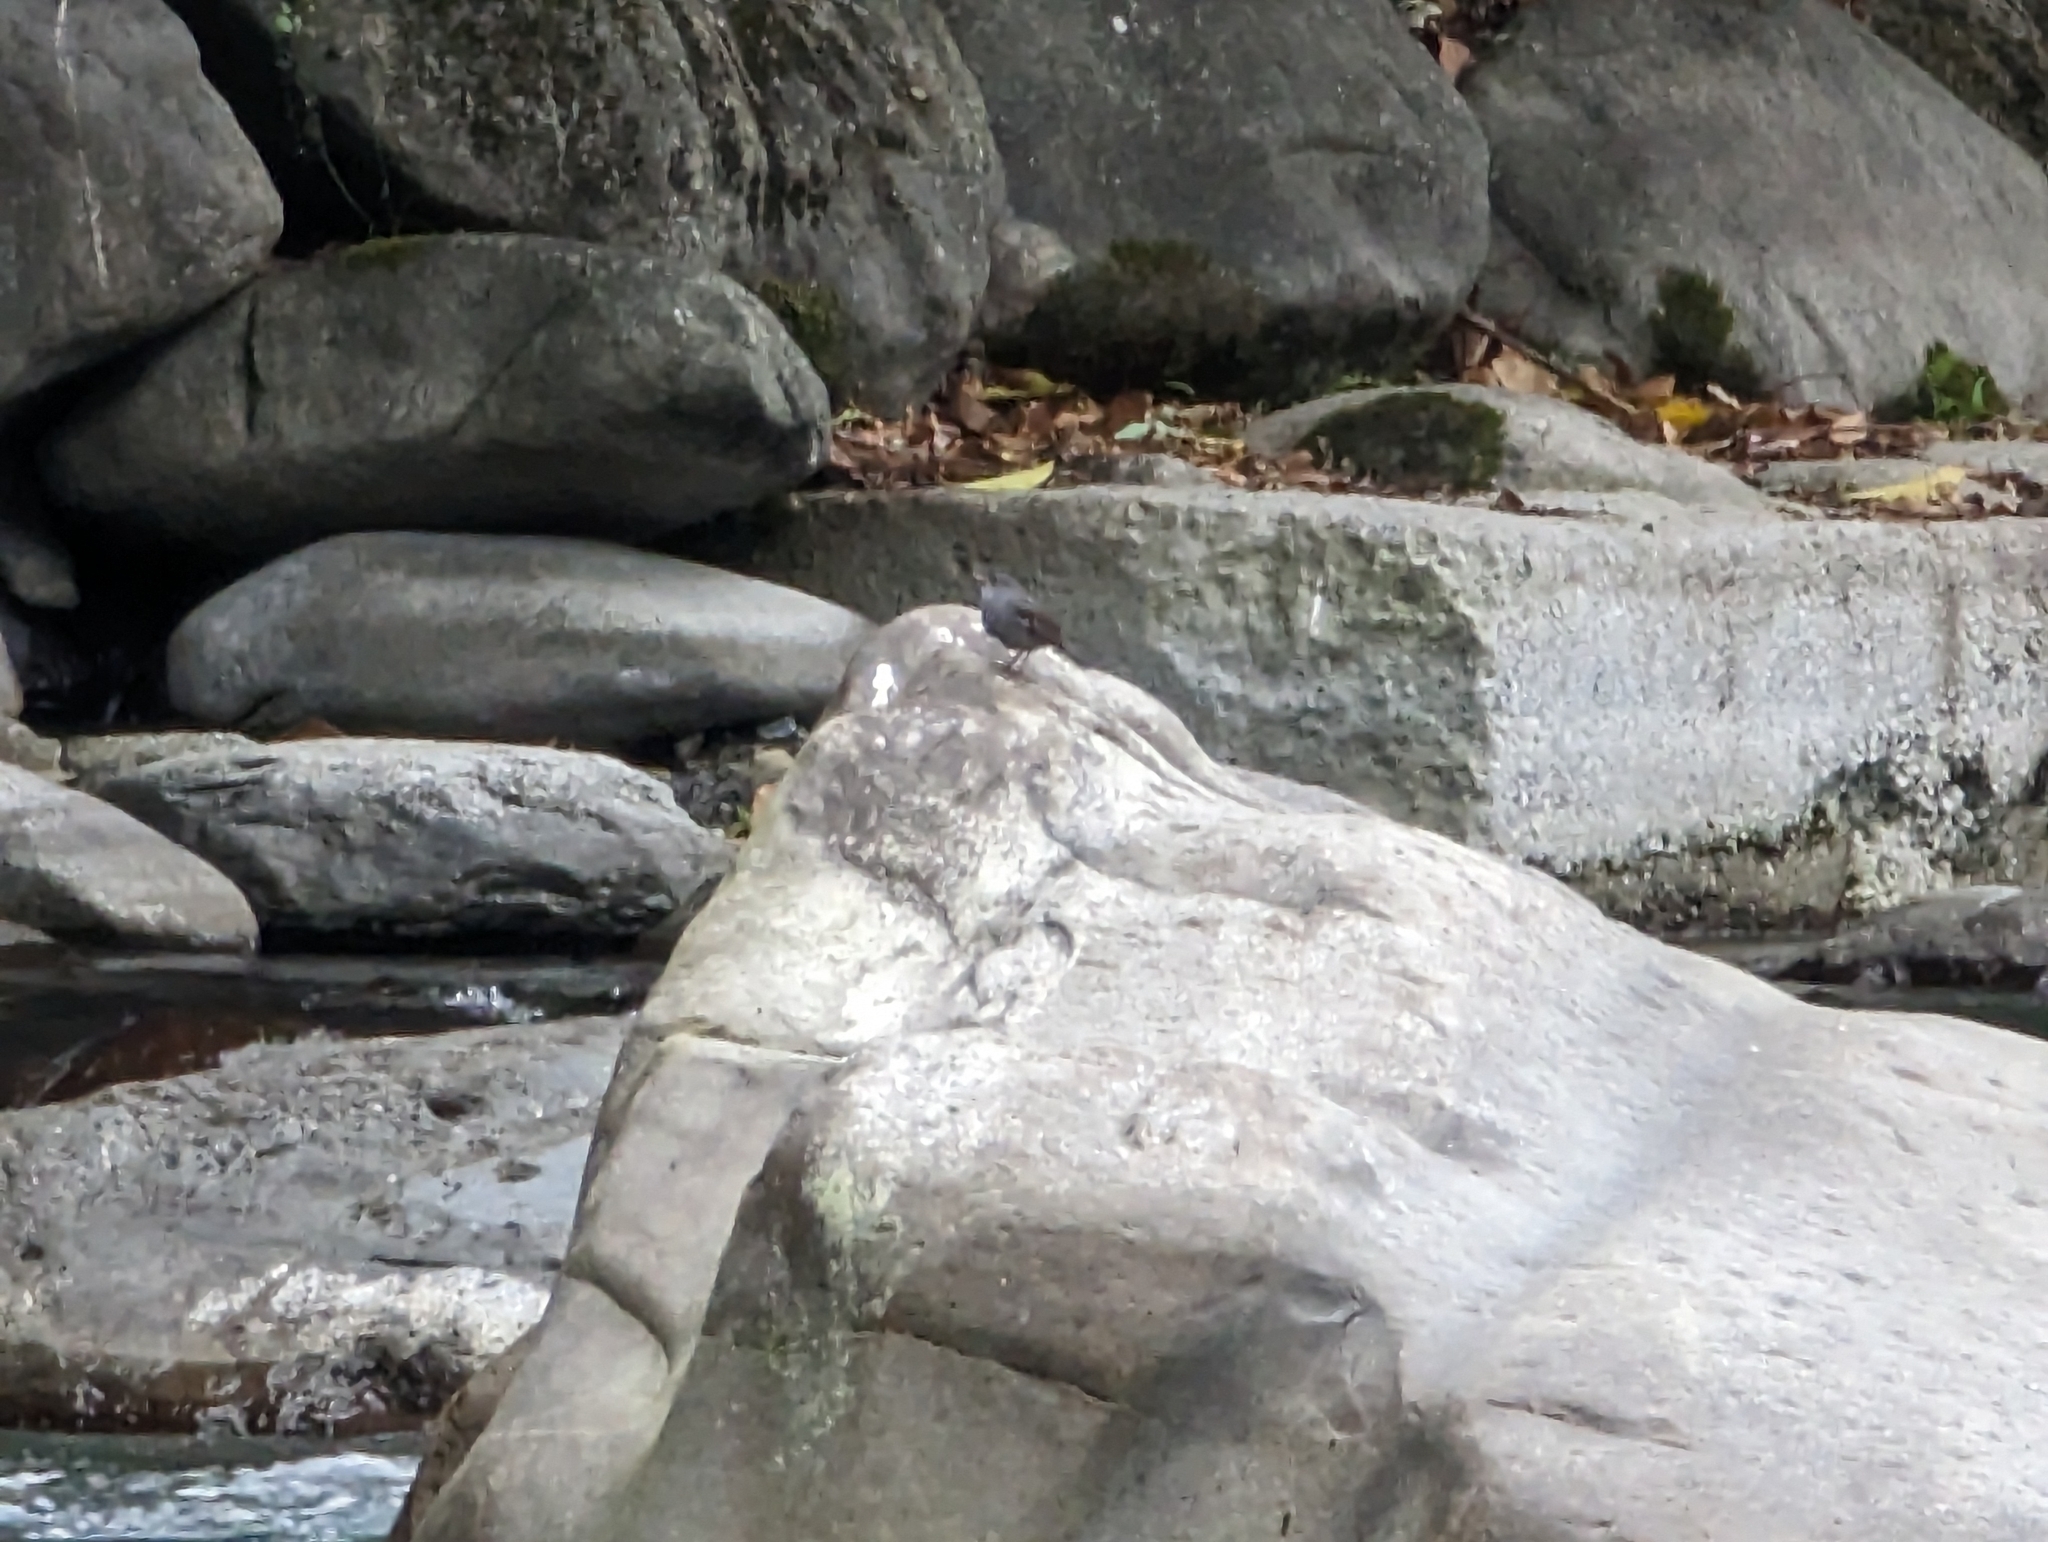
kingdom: Animalia
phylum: Chordata
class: Aves
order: Passeriformes
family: Muscicapidae
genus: Phoenicurus
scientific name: Phoenicurus fuliginosus
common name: Plumbeous water redstart
